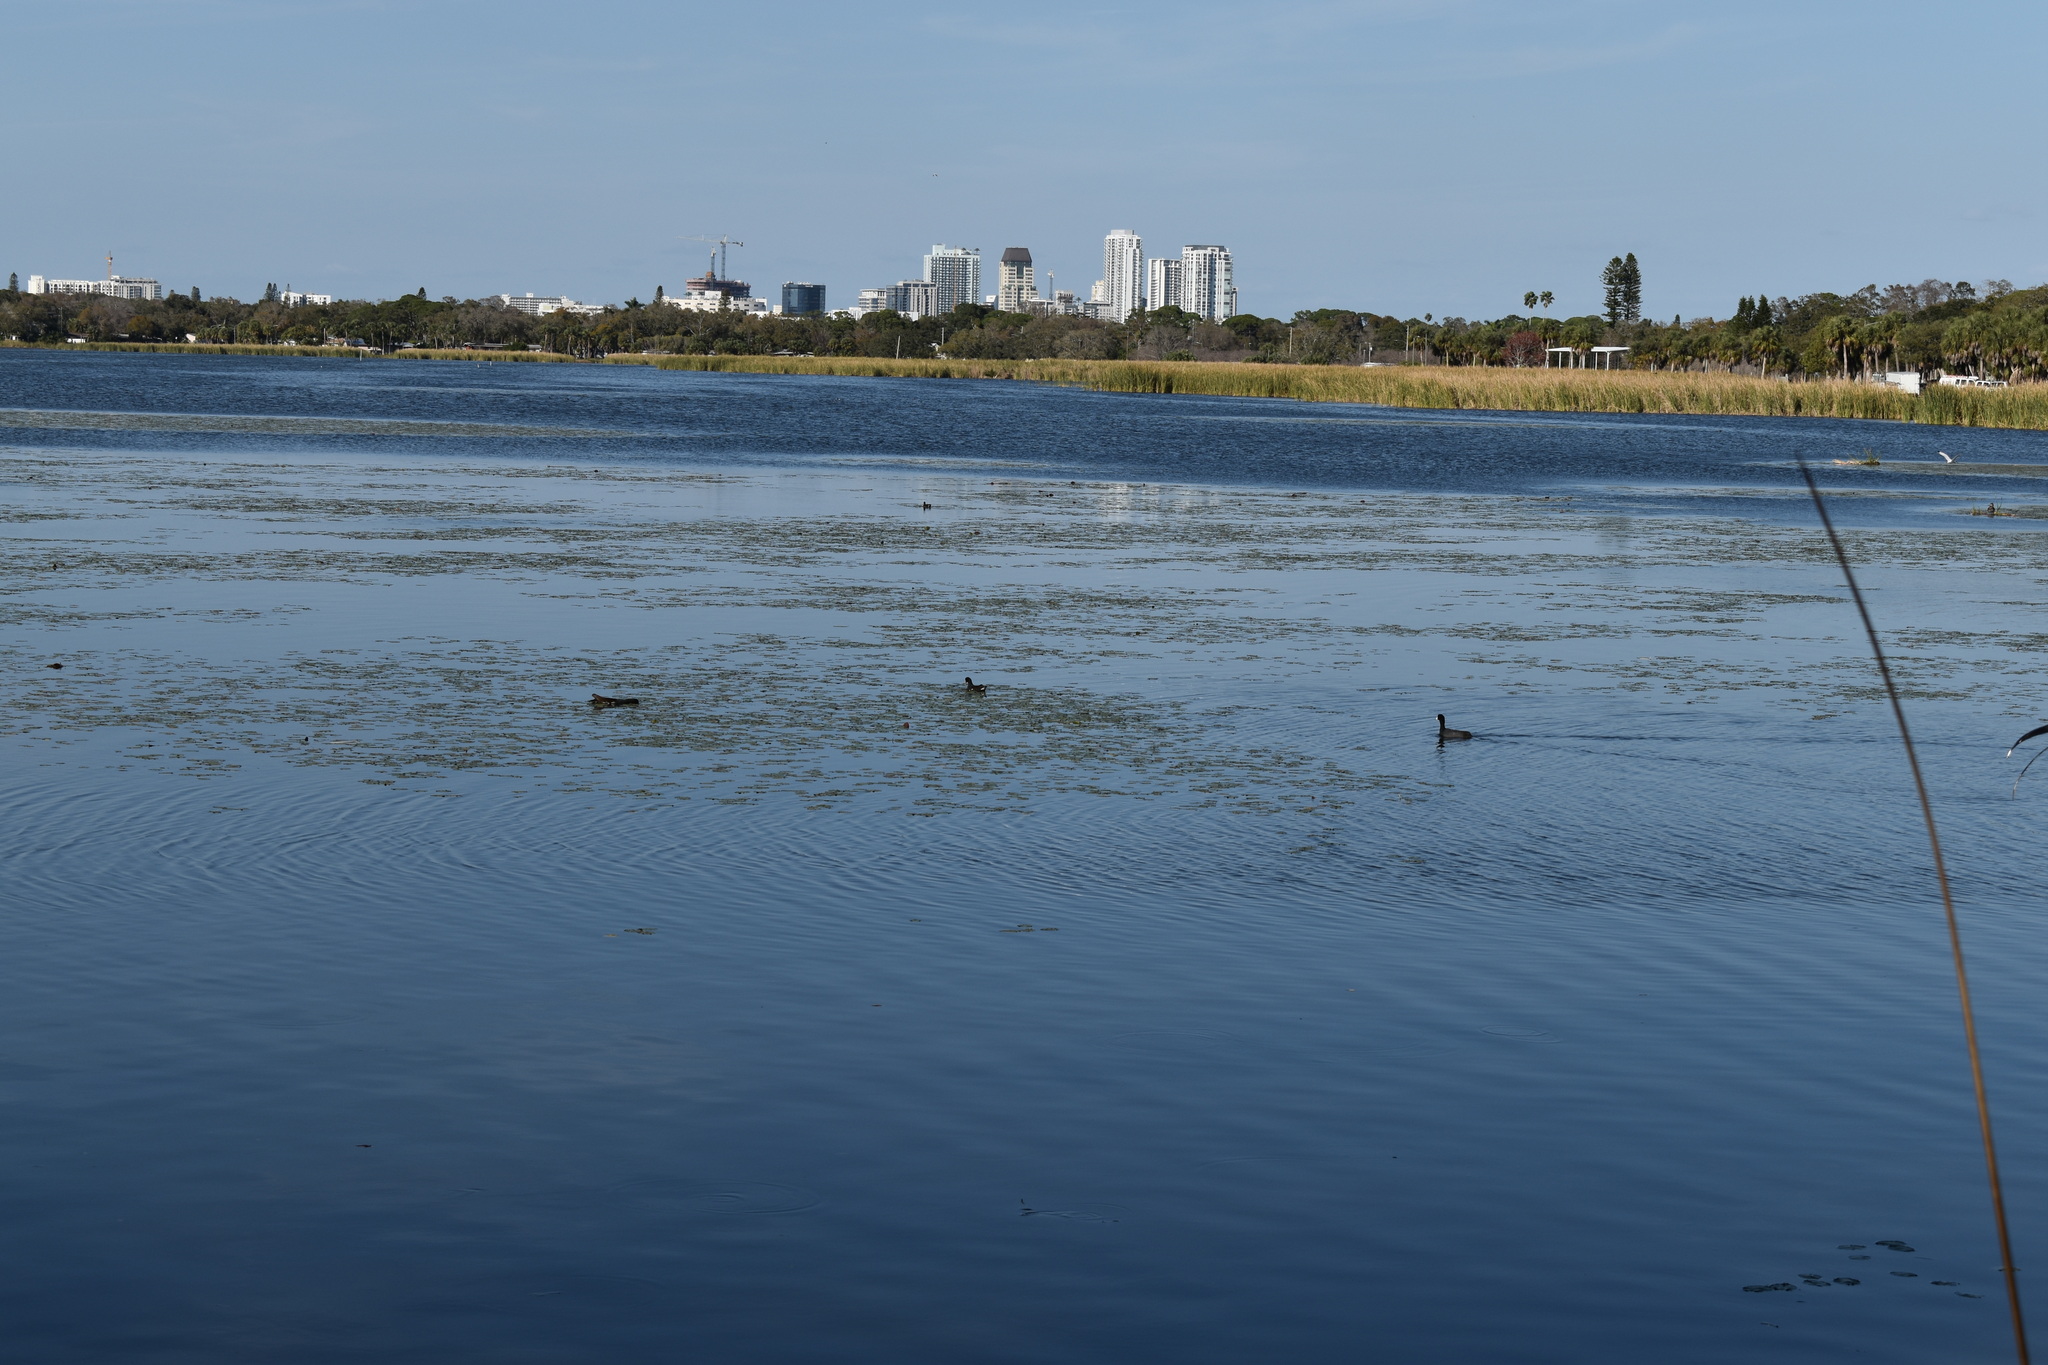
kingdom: Animalia
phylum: Chordata
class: Aves
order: Gruiformes
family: Rallidae
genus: Fulica
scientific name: Fulica americana
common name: American coot
